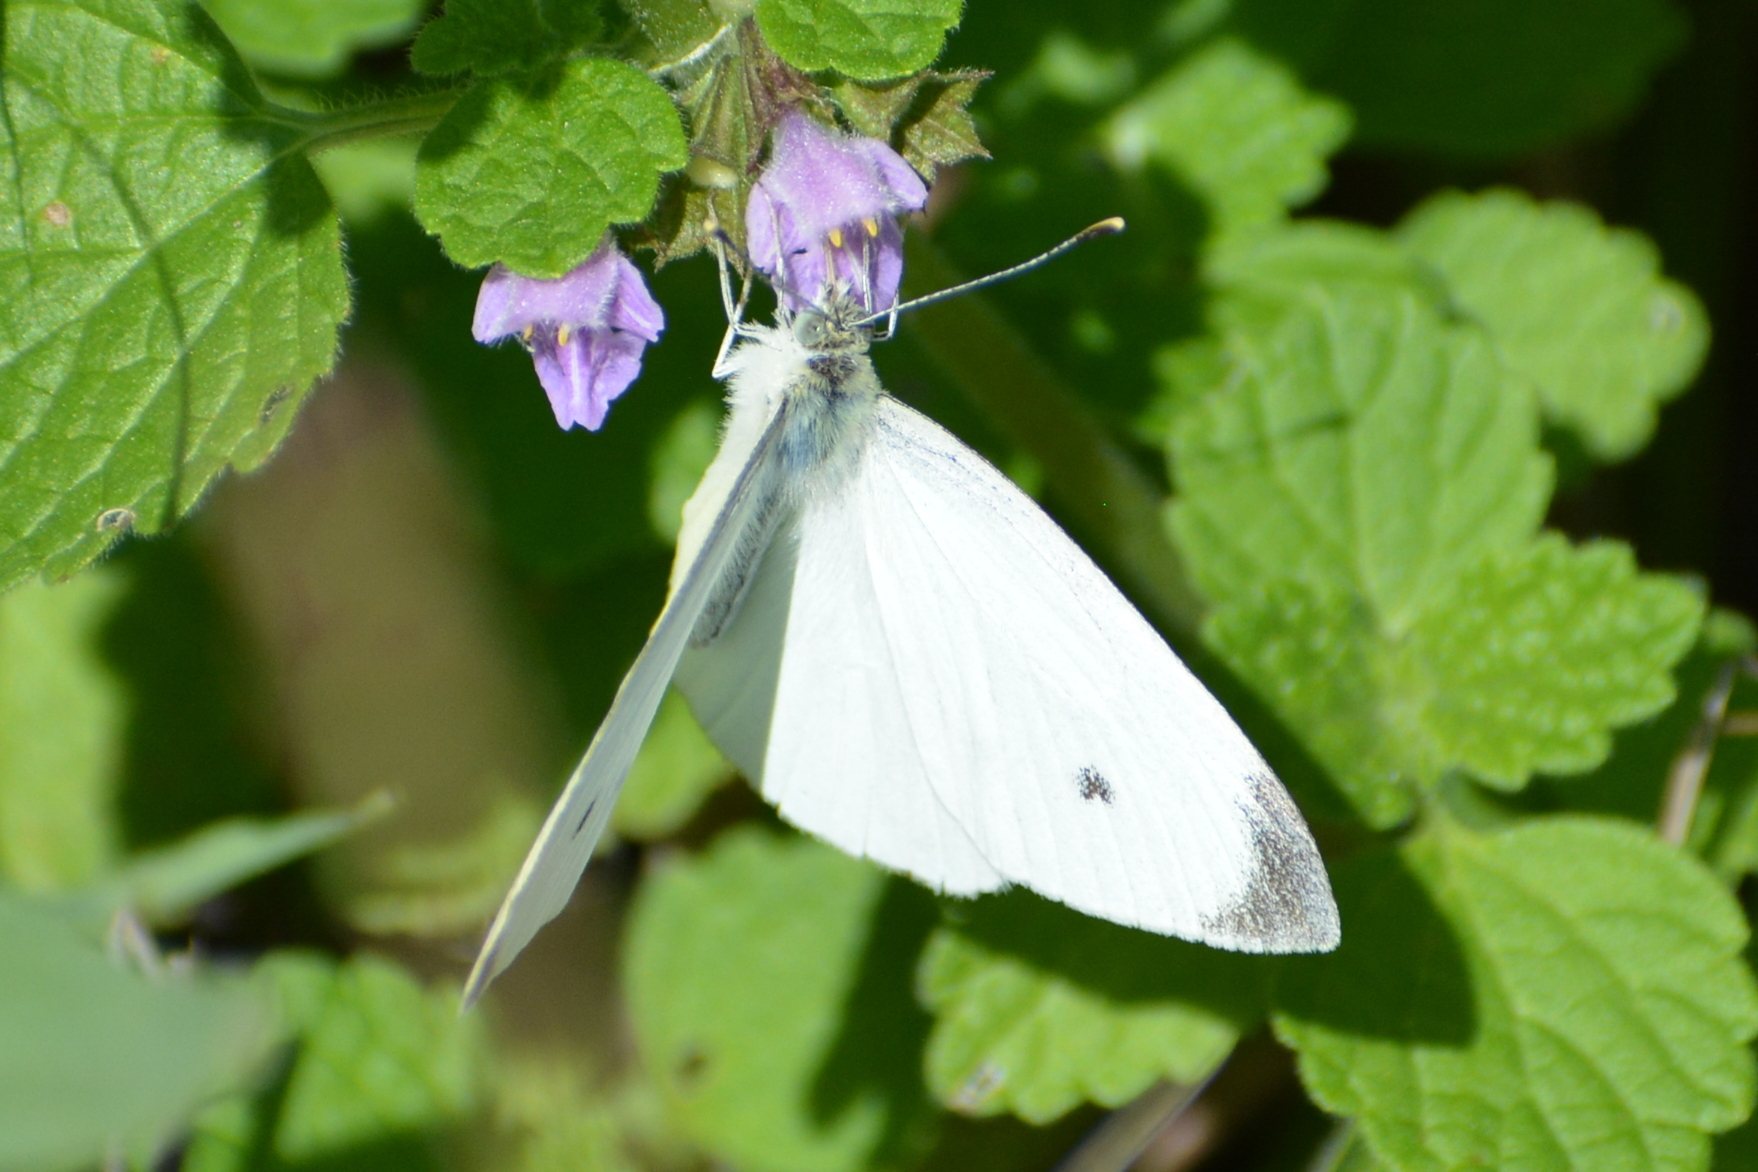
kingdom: Animalia
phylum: Arthropoda
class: Insecta
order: Lepidoptera
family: Pieridae
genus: Pieris
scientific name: Pieris napi
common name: Green-veined white
